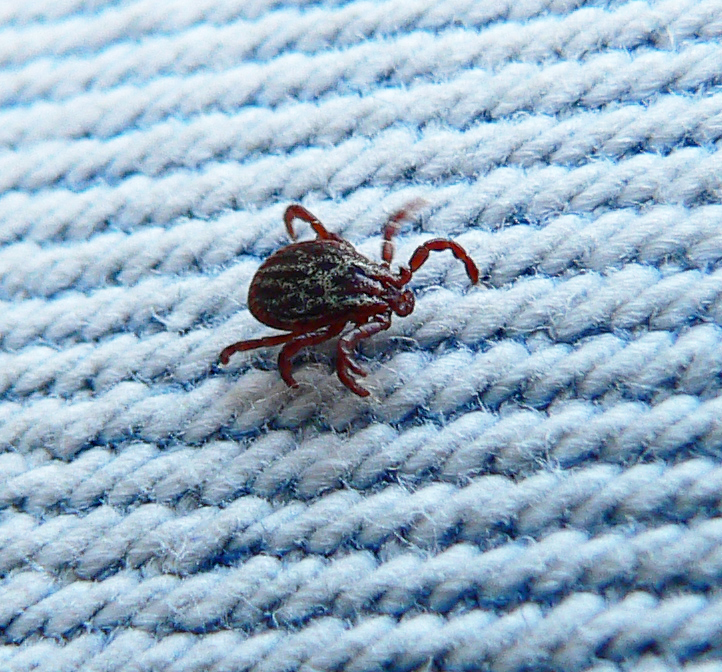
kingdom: Animalia
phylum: Arthropoda
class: Arachnida
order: Ixodida
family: Ixodidae
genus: Dermacentor
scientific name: Dermacentor reticulatus
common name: Ornate cow tick
